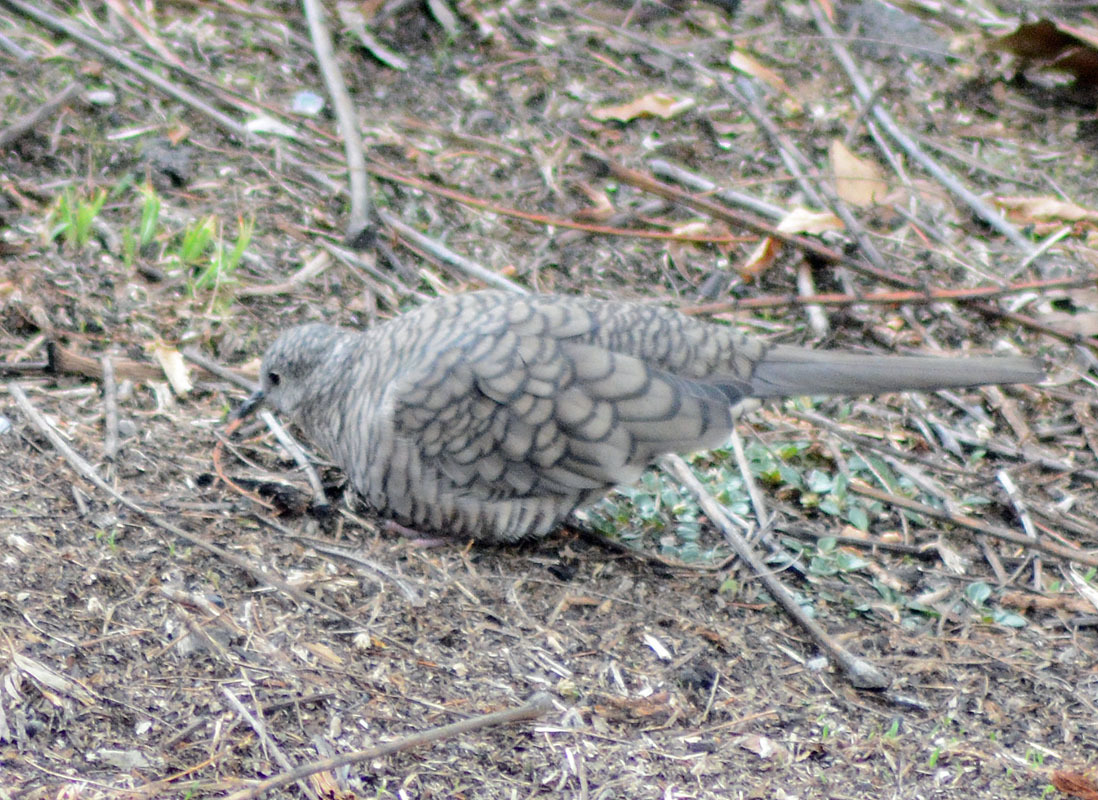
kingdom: Animalia
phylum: Chordata
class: Aves
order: Columbiformes
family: Columbidae
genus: Columbina
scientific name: Columbina inca
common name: Inca dove
